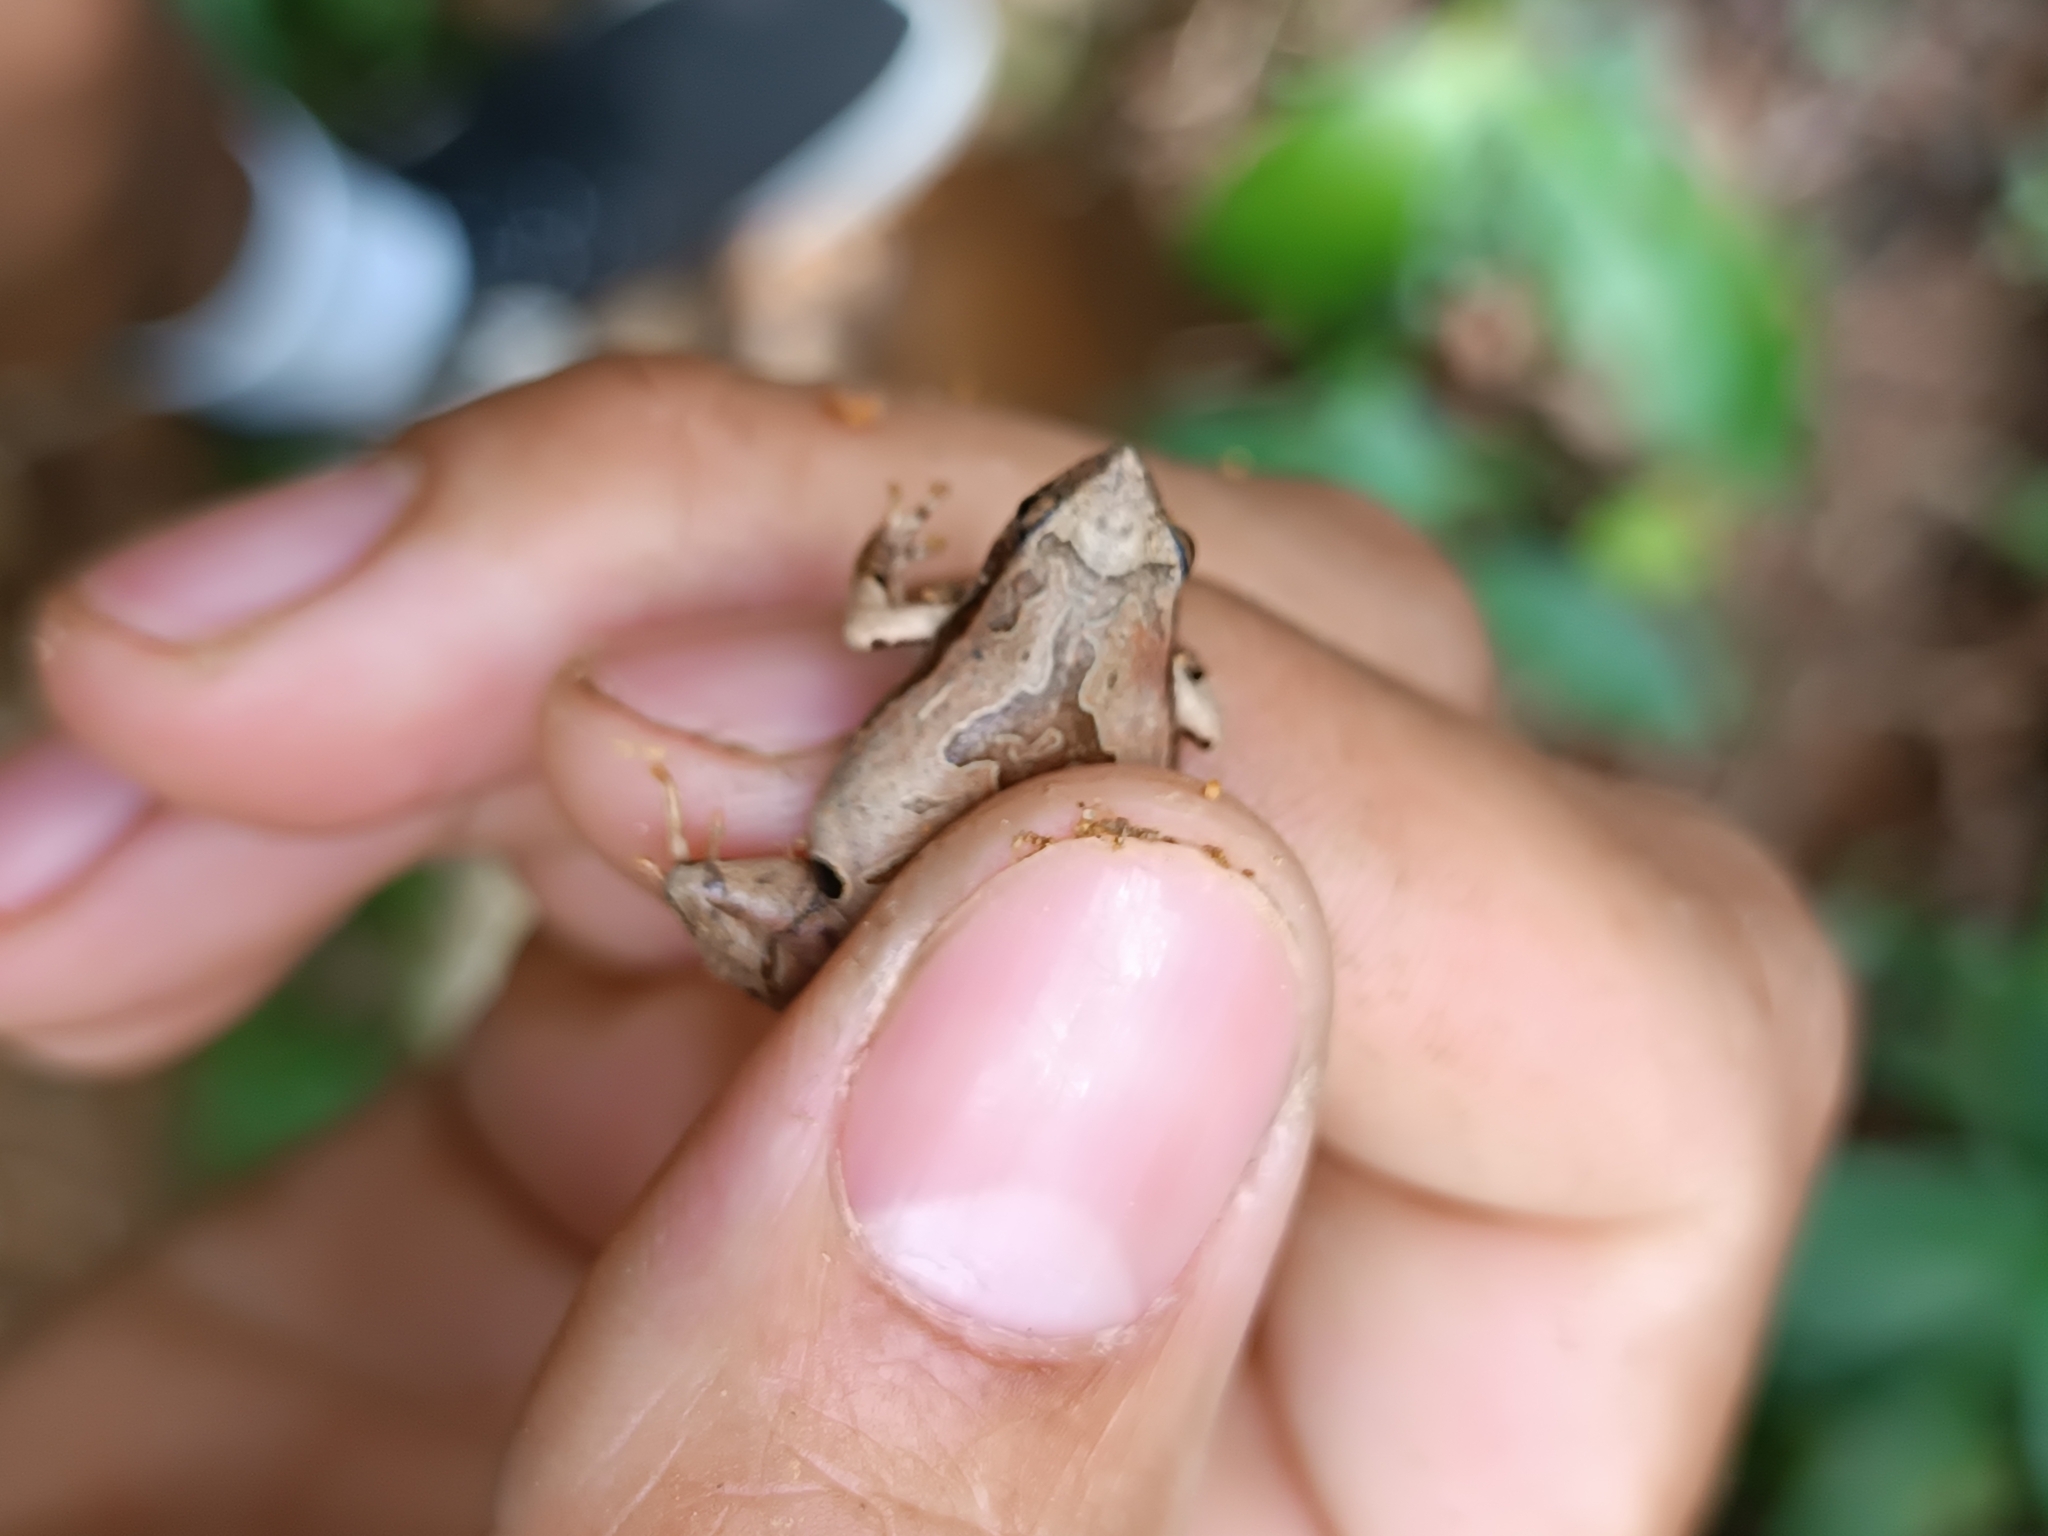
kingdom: Animalia
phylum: Chordata
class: Amphibia
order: Anura
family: Leptodactylidae
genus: Physalaemus
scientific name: Physalaemus nanus
